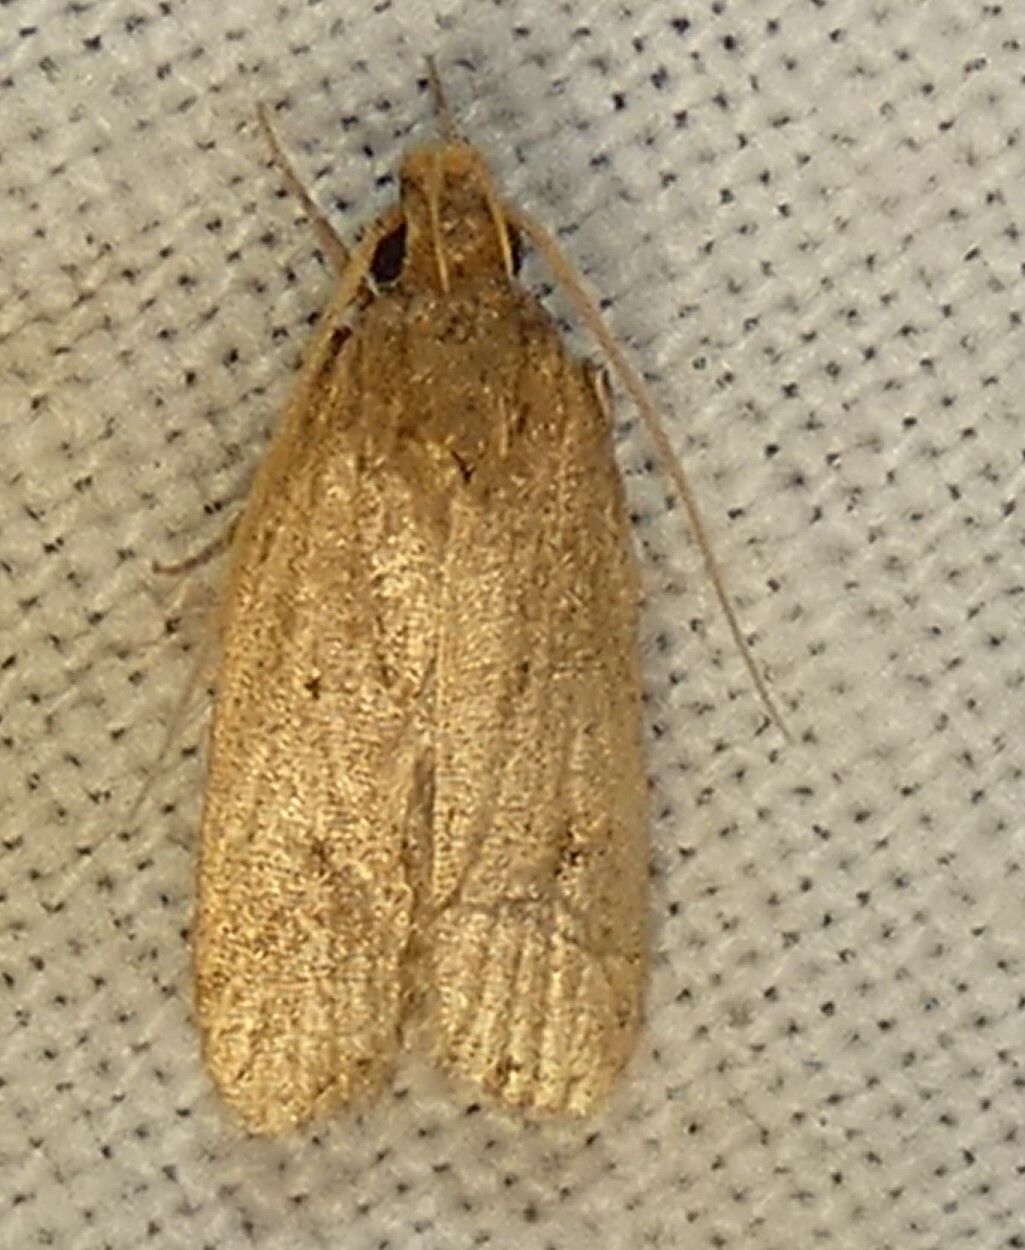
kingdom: Animalia
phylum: Arthropoda
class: Insecta
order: Lepidoptera
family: Autostichidae
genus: Autosticha
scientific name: Autosticha kyotensis
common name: Kyoto moth
